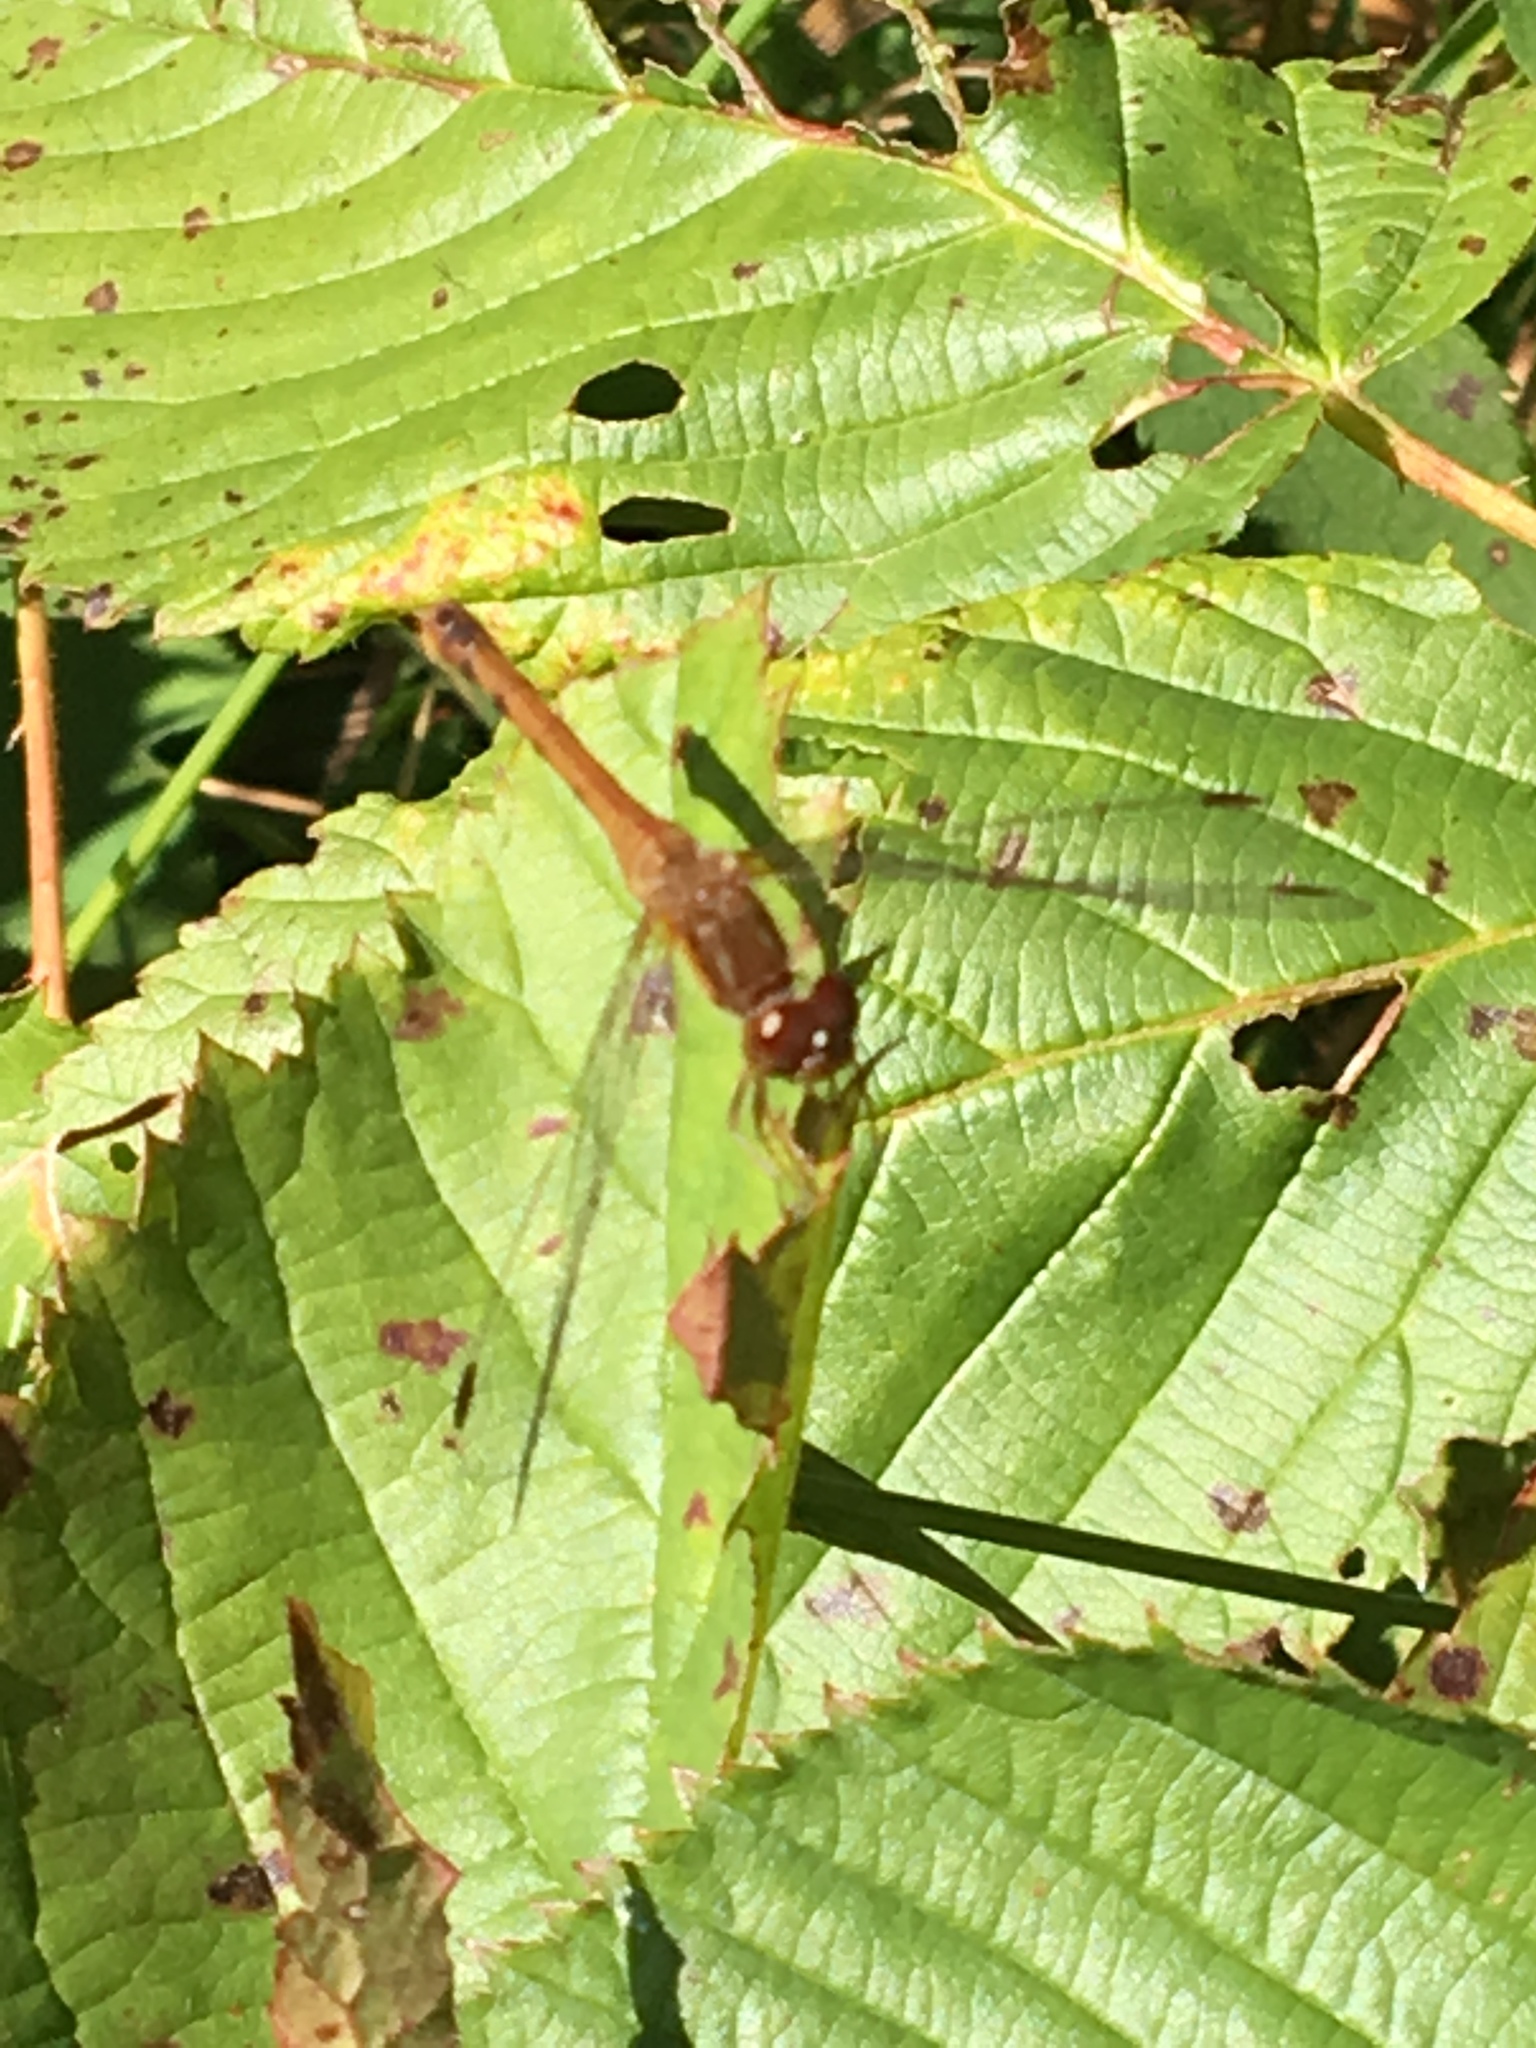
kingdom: Animalia
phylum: Arthropoda
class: Insecta
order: Odonata
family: Libellulidae
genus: Sympetrum
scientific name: Sympetrum vicinum
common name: Autumn meadowhawk
